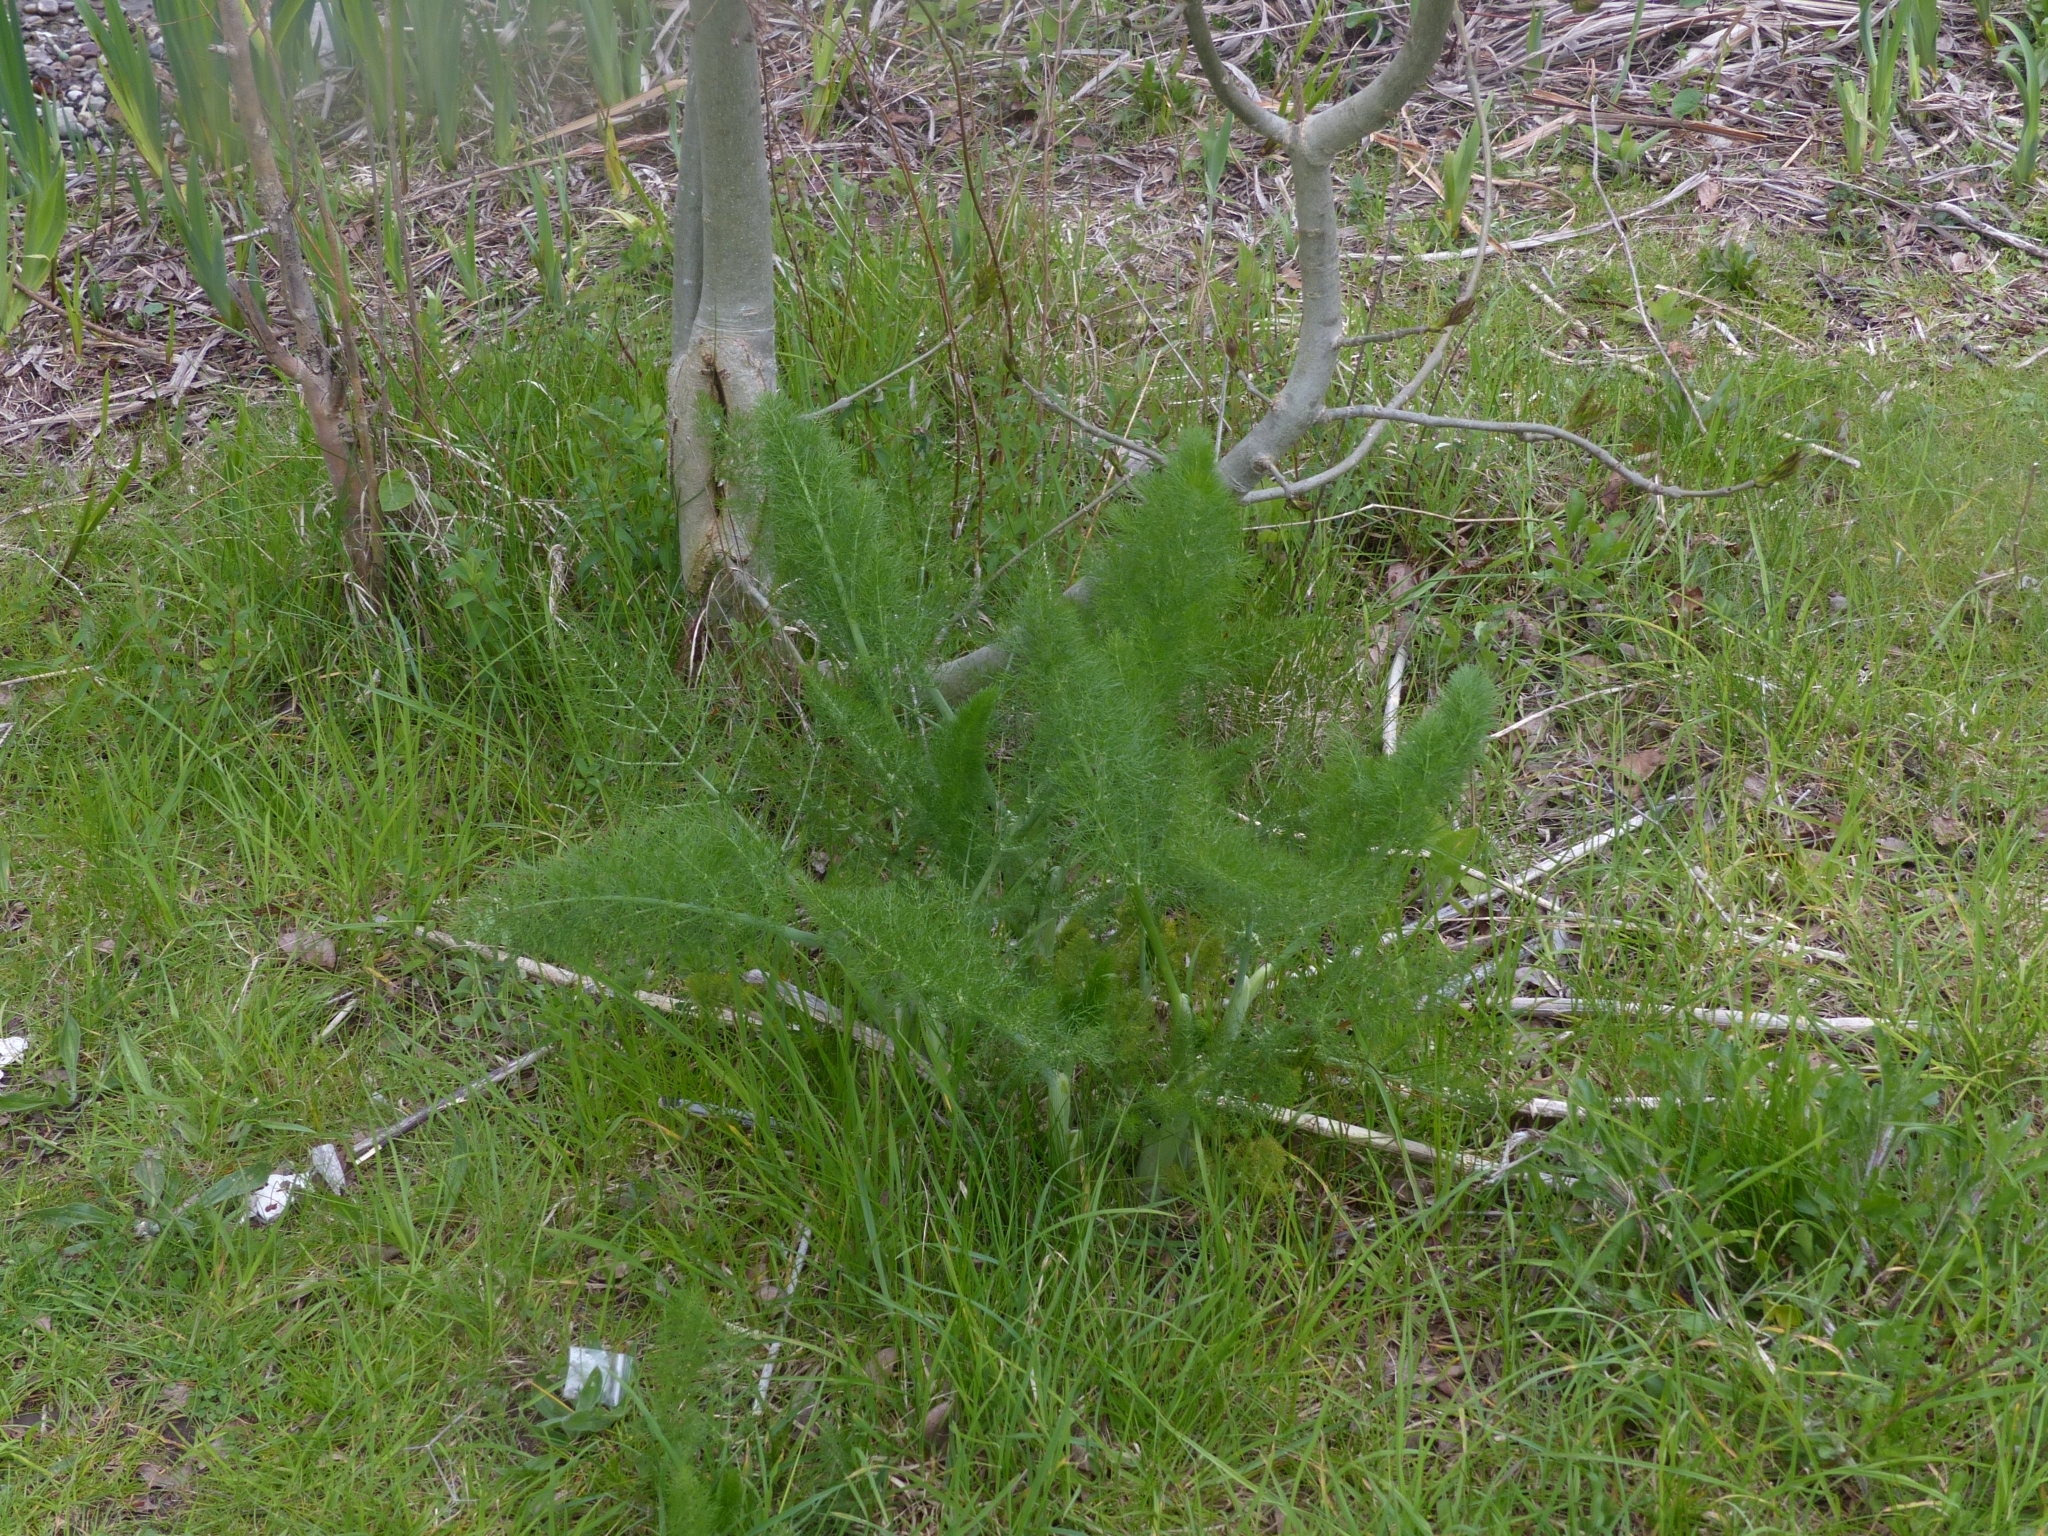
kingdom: Plantae
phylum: Tracheophyta
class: Magnoliopsida
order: Apiales
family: Apiaceae
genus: Foeniculum
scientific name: Foeniculum vulgare
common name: Fennel
